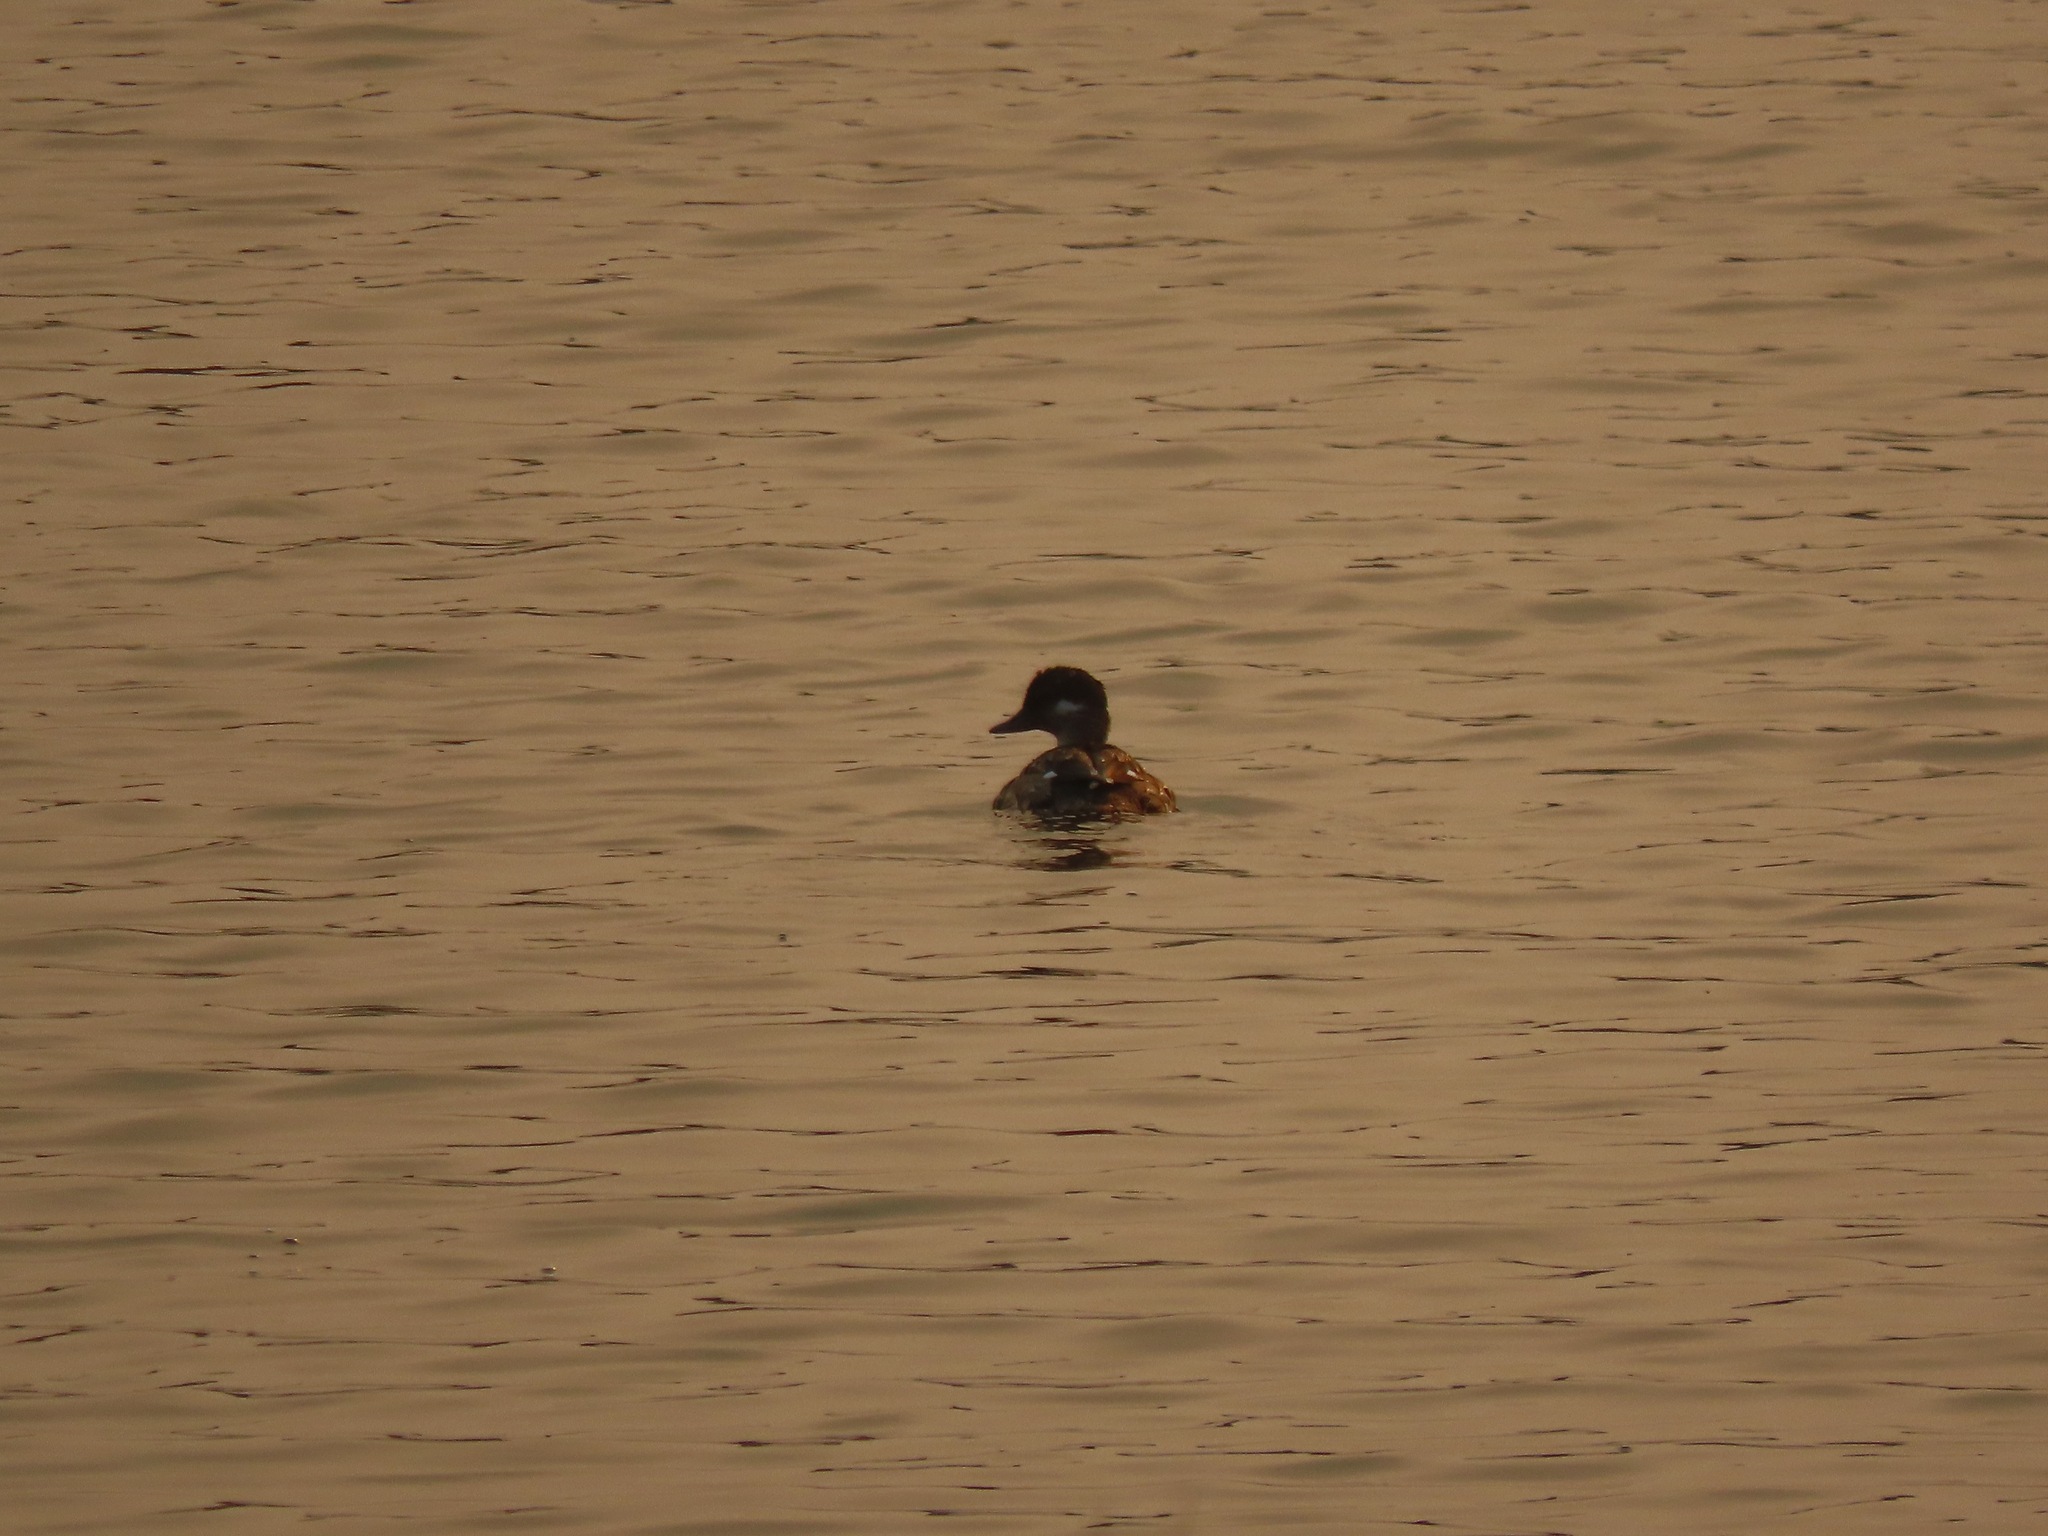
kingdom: Animalia
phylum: Chordata
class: Aves
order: Anseriformes
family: Anatidae
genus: Bucephala
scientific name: Bucephala albeola
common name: Bufflehead
